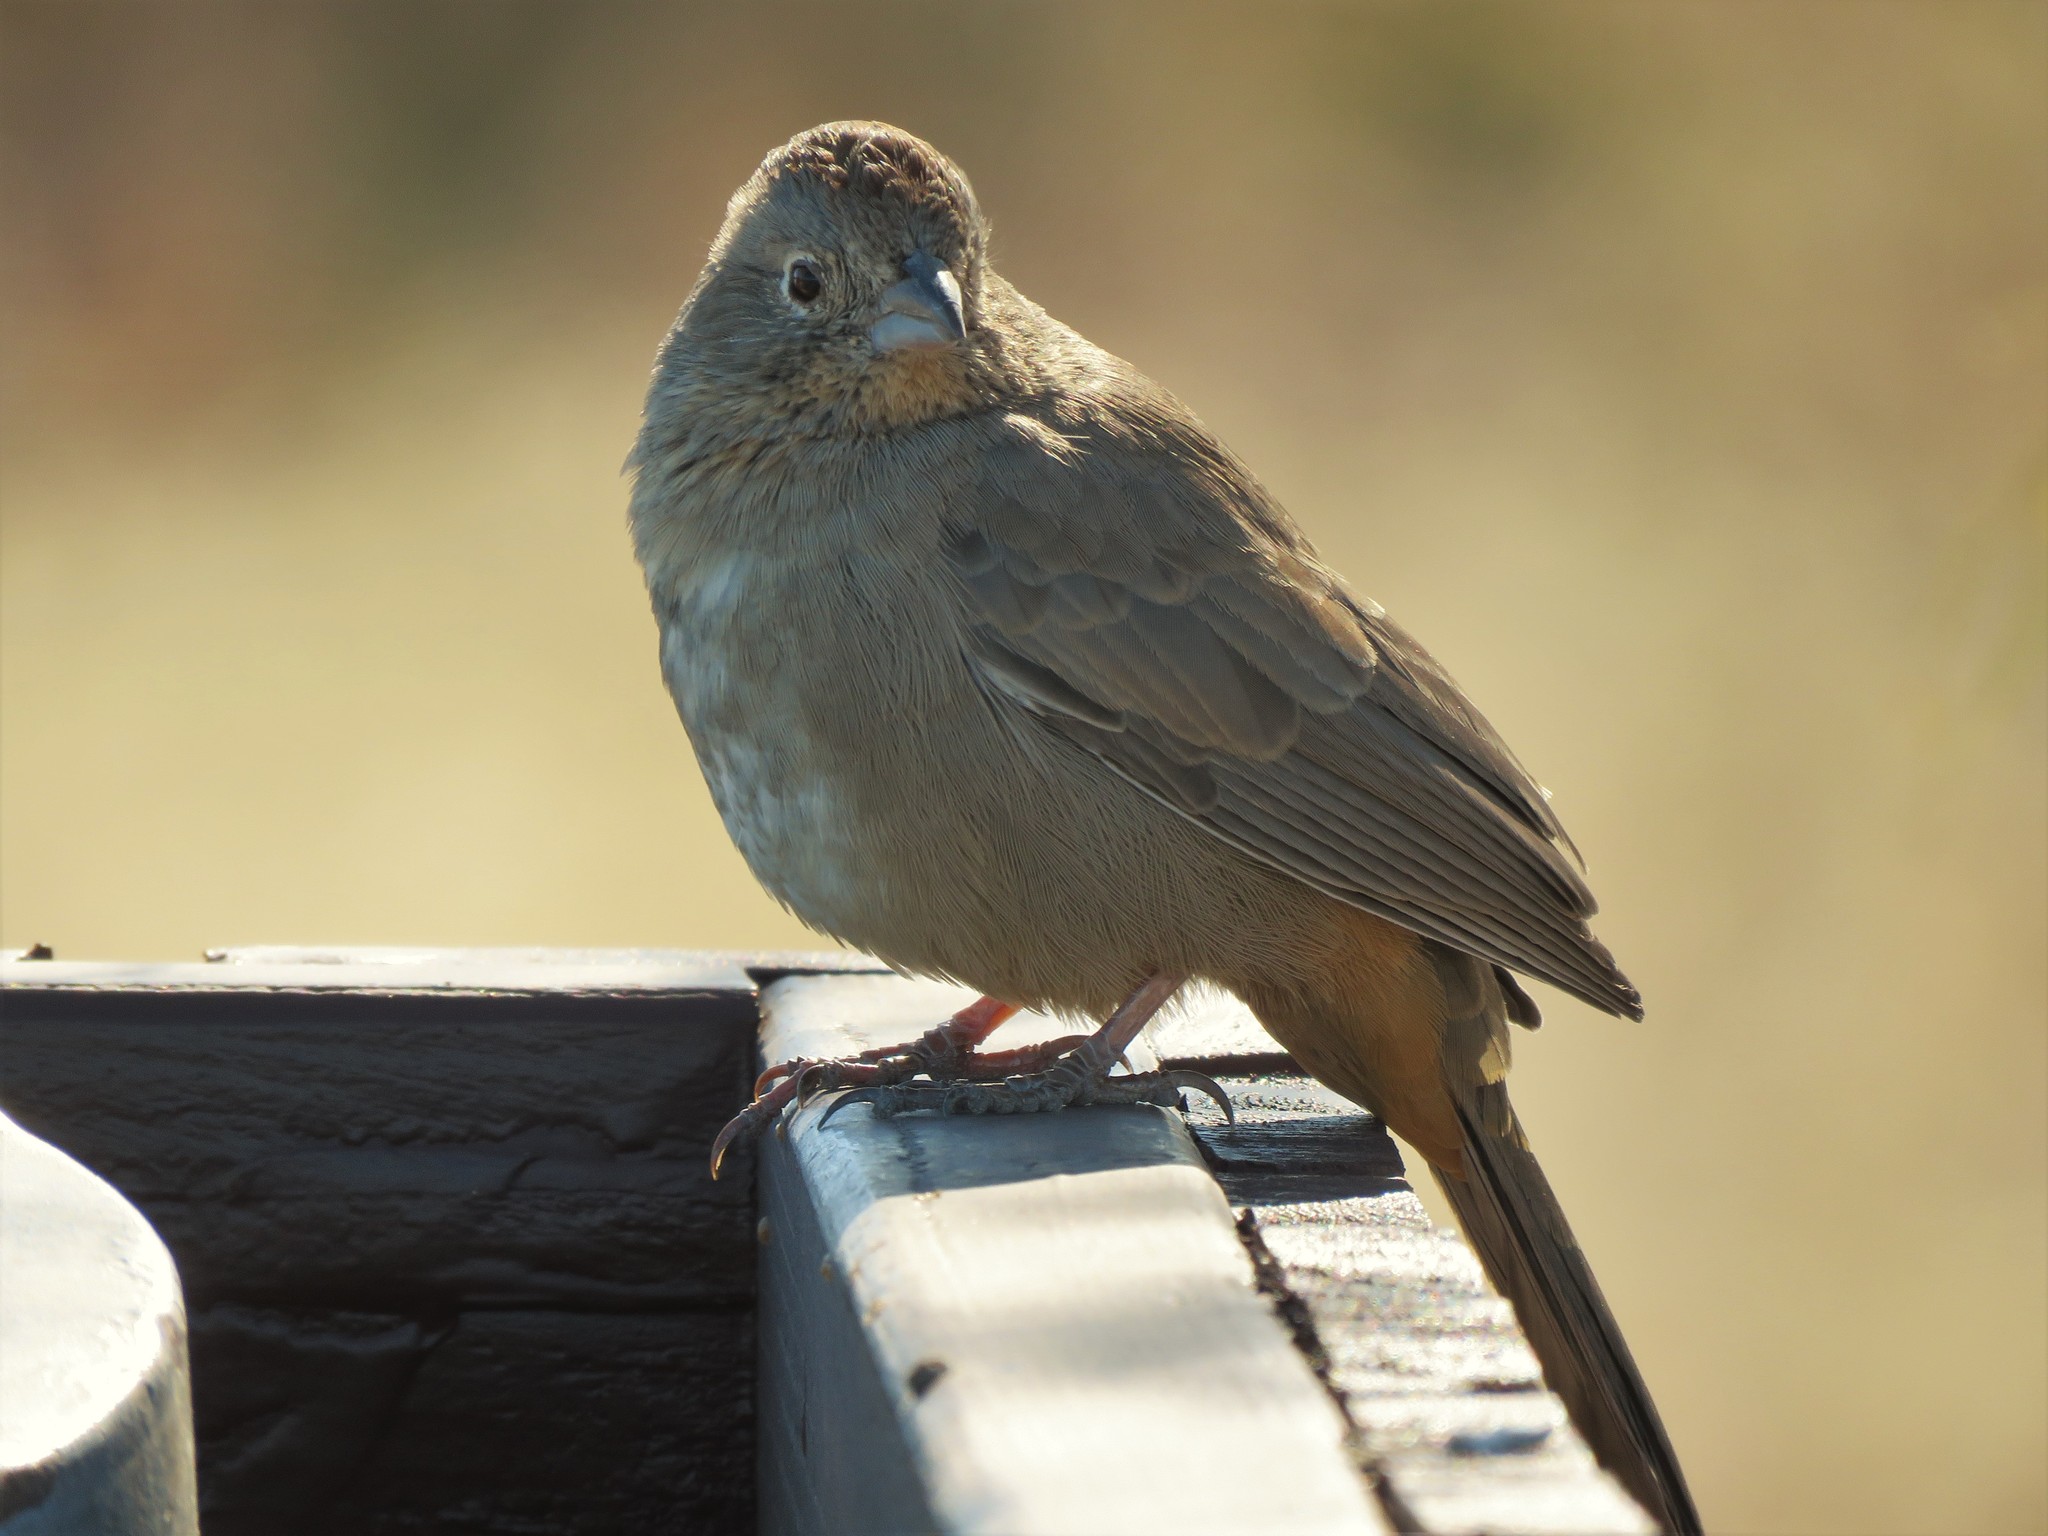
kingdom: Animalia
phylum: Chordata
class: Aves
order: Passeriformes
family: Passerellidae
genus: Melozone
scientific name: Melozone fusca
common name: Canyon towhee
